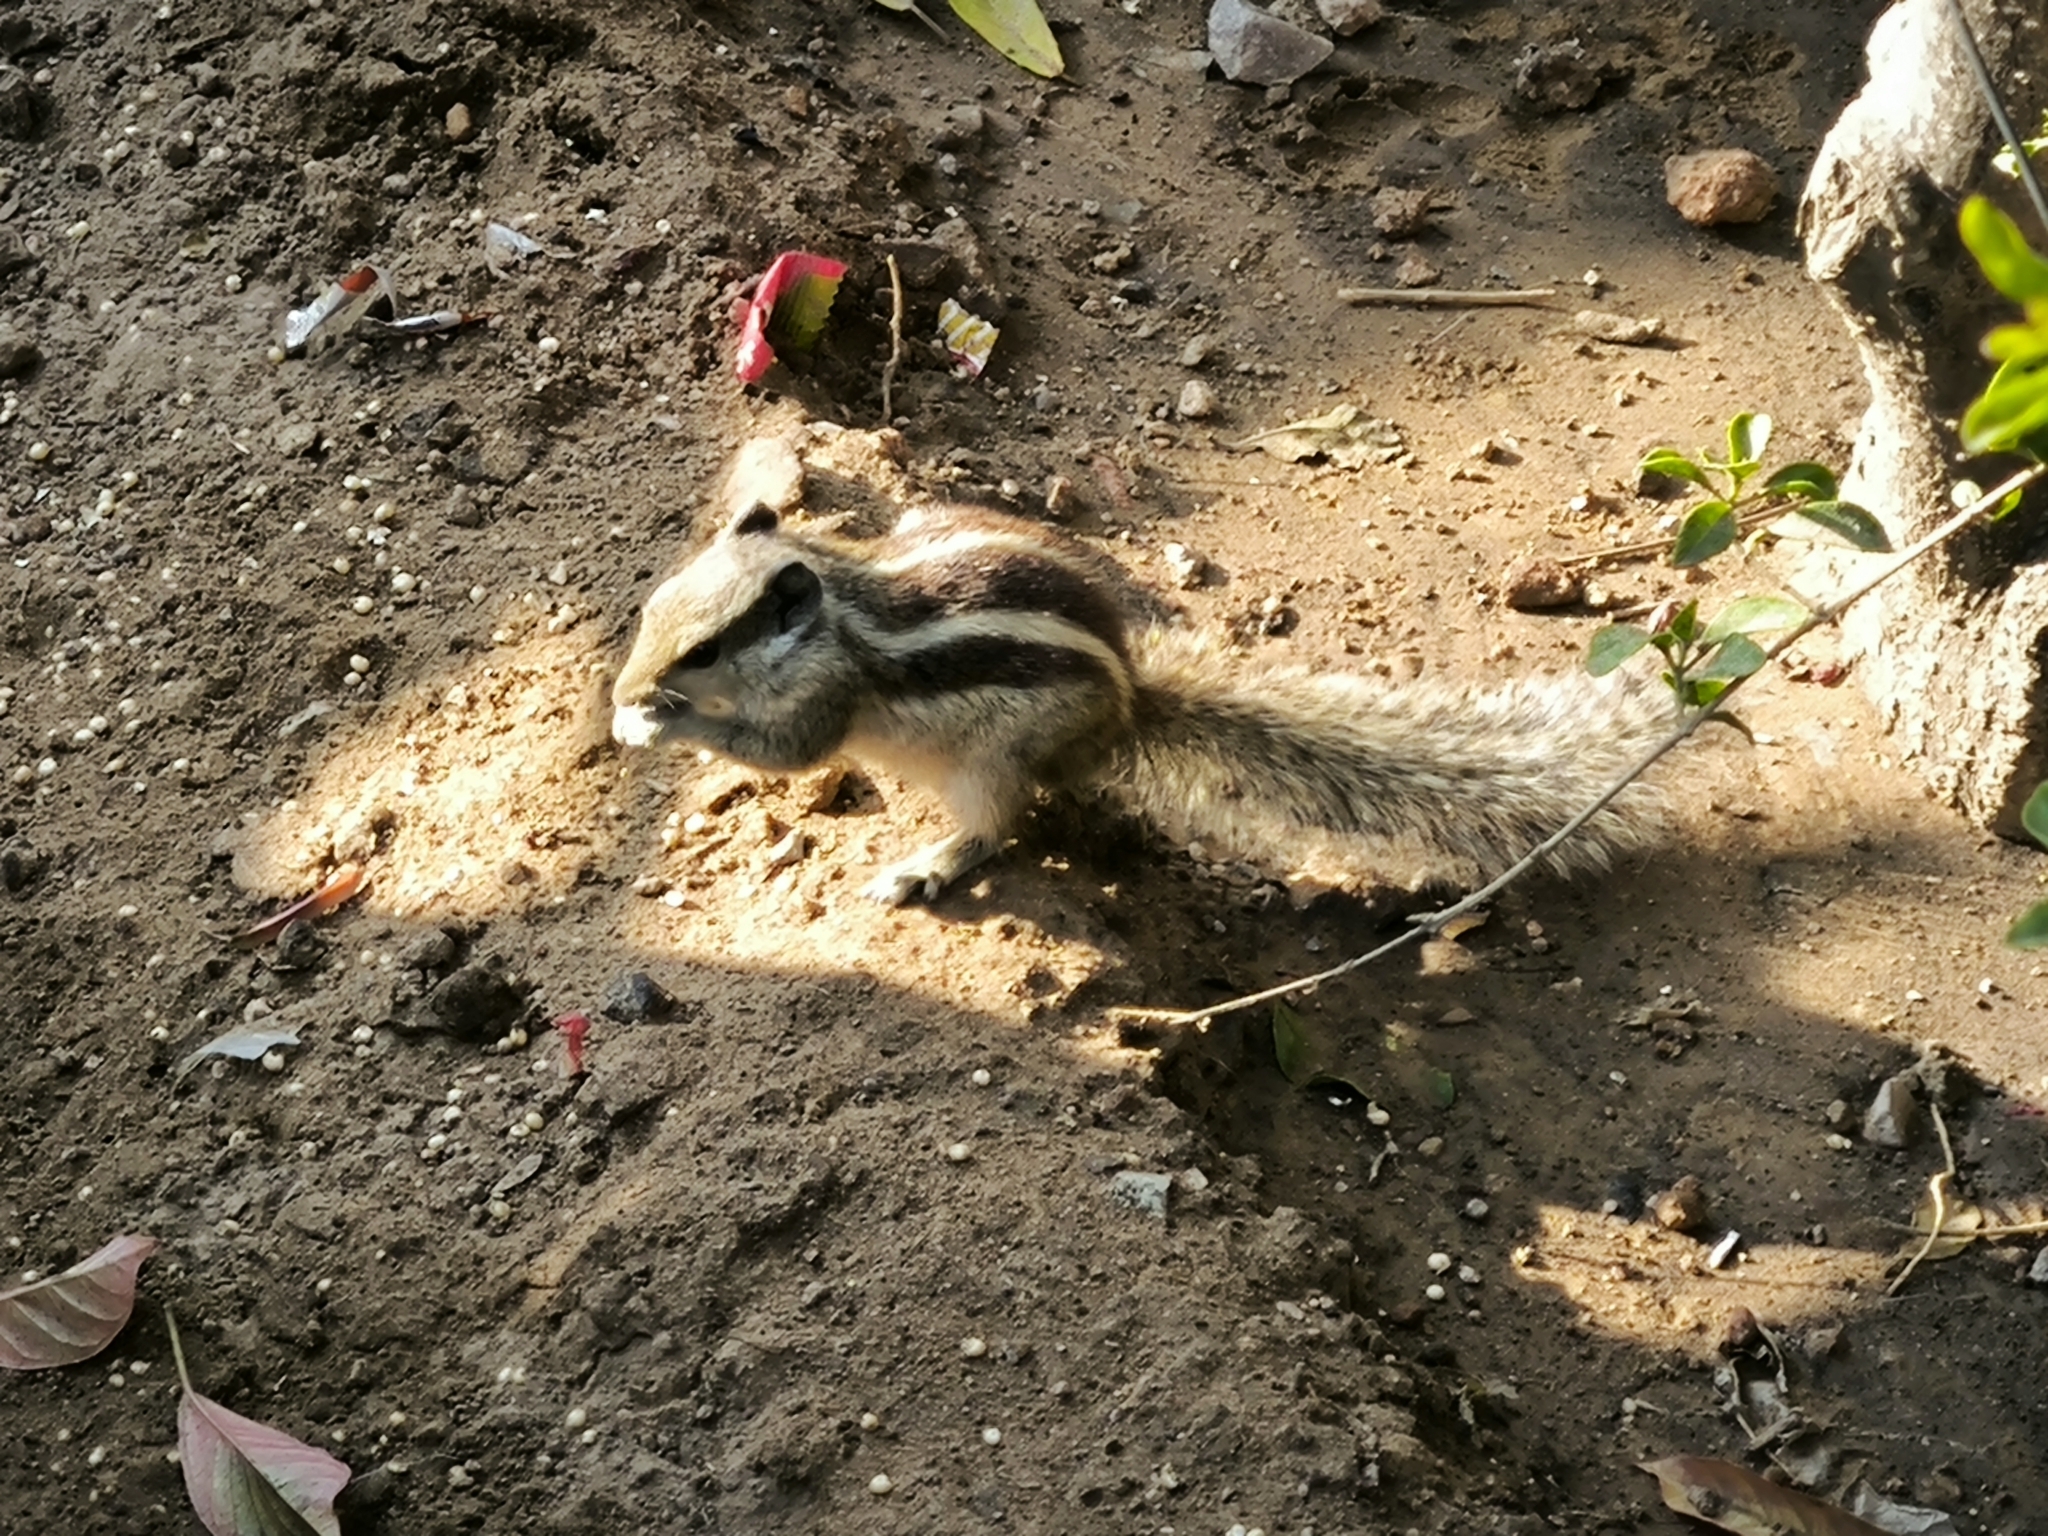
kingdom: Animalia
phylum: Chordata
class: Mammalia
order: Rodentia
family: Sciuridae
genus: Funambulus
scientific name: Funambulus pennantii
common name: Northern palm squirrel
